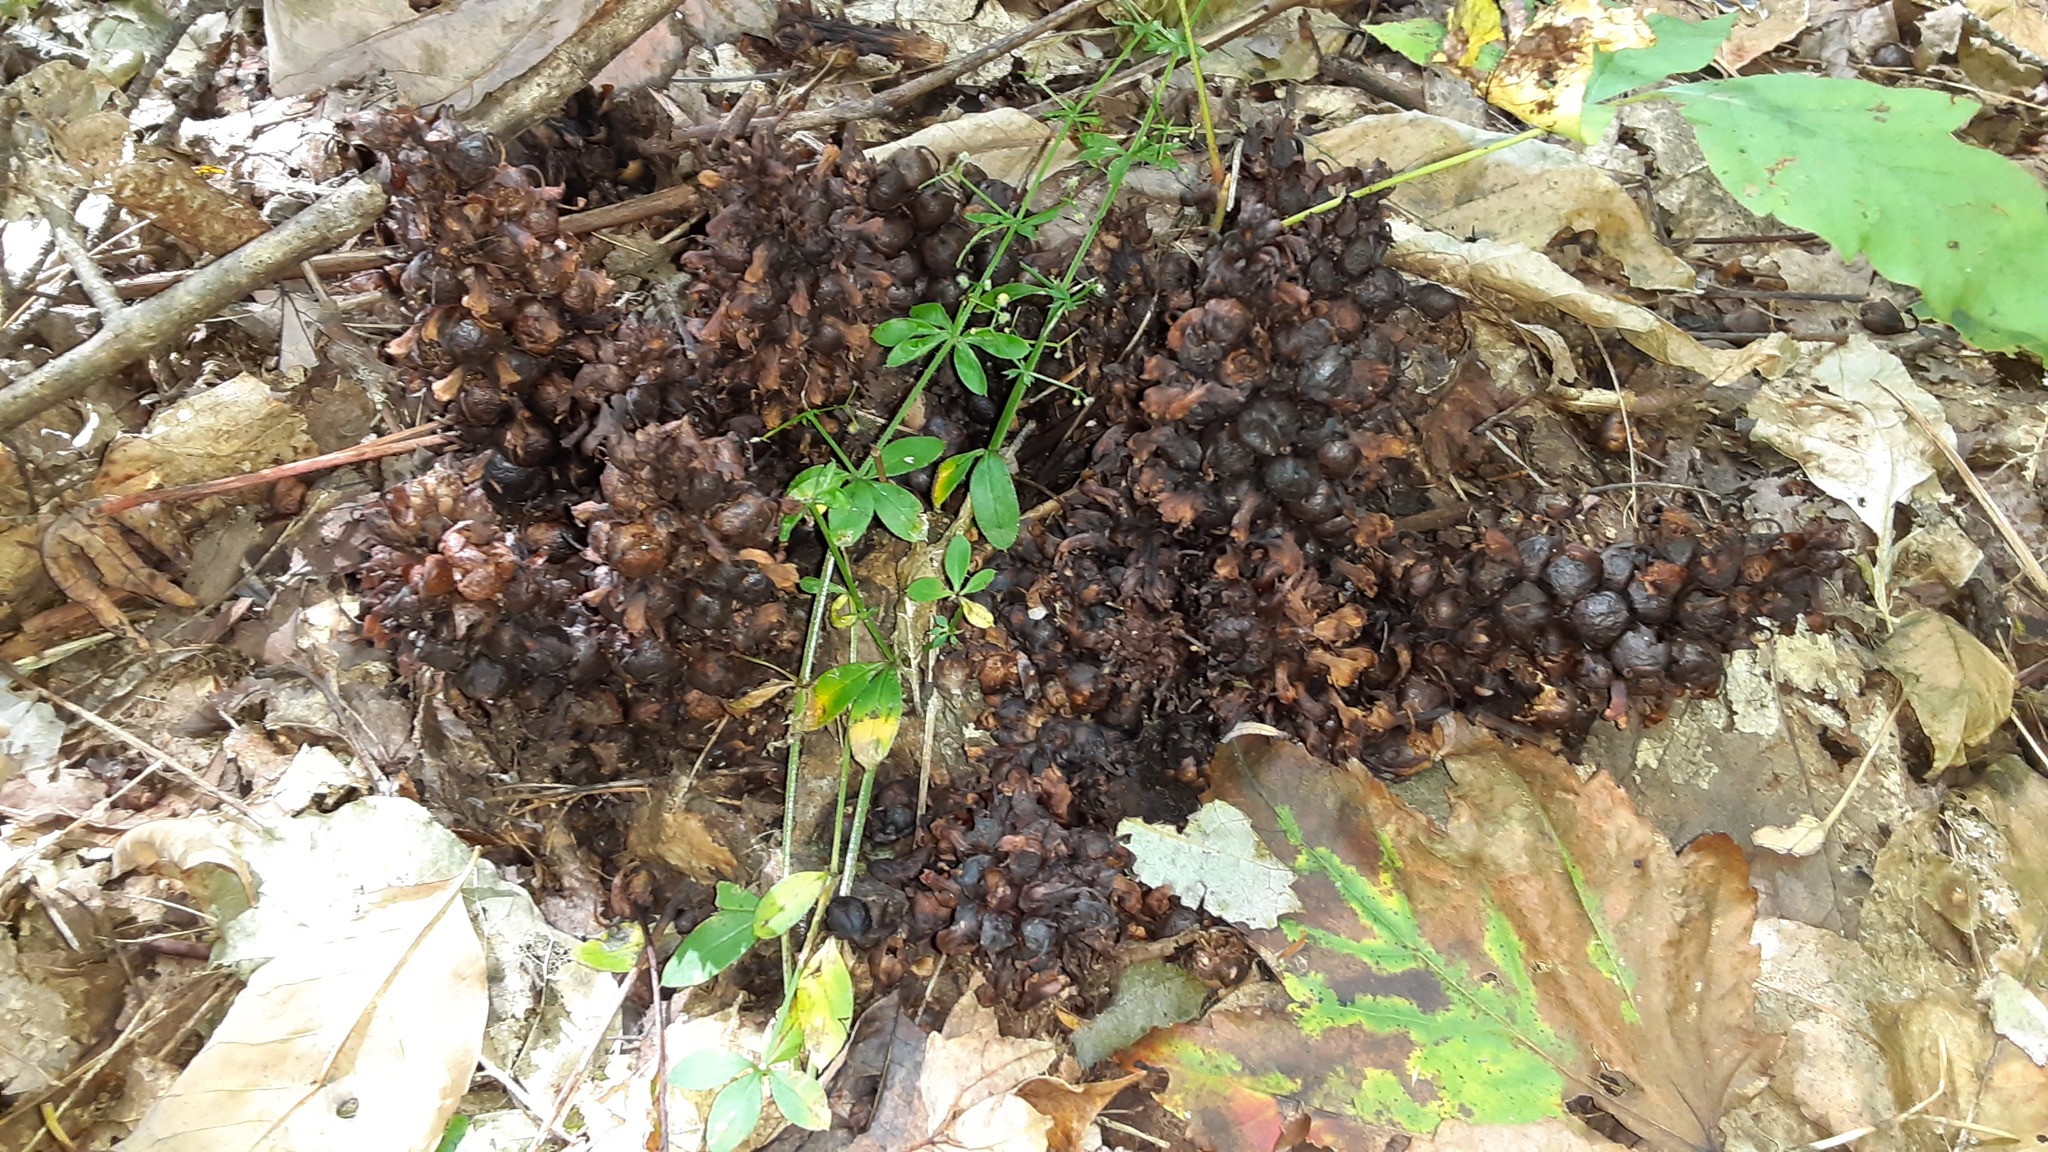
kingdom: Plantae
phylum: Tracheophyta
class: Magnoliopsida
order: Lamiales
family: Orobanchaceae
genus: Conopholis
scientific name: Conopholis americana
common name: American cancer-root
